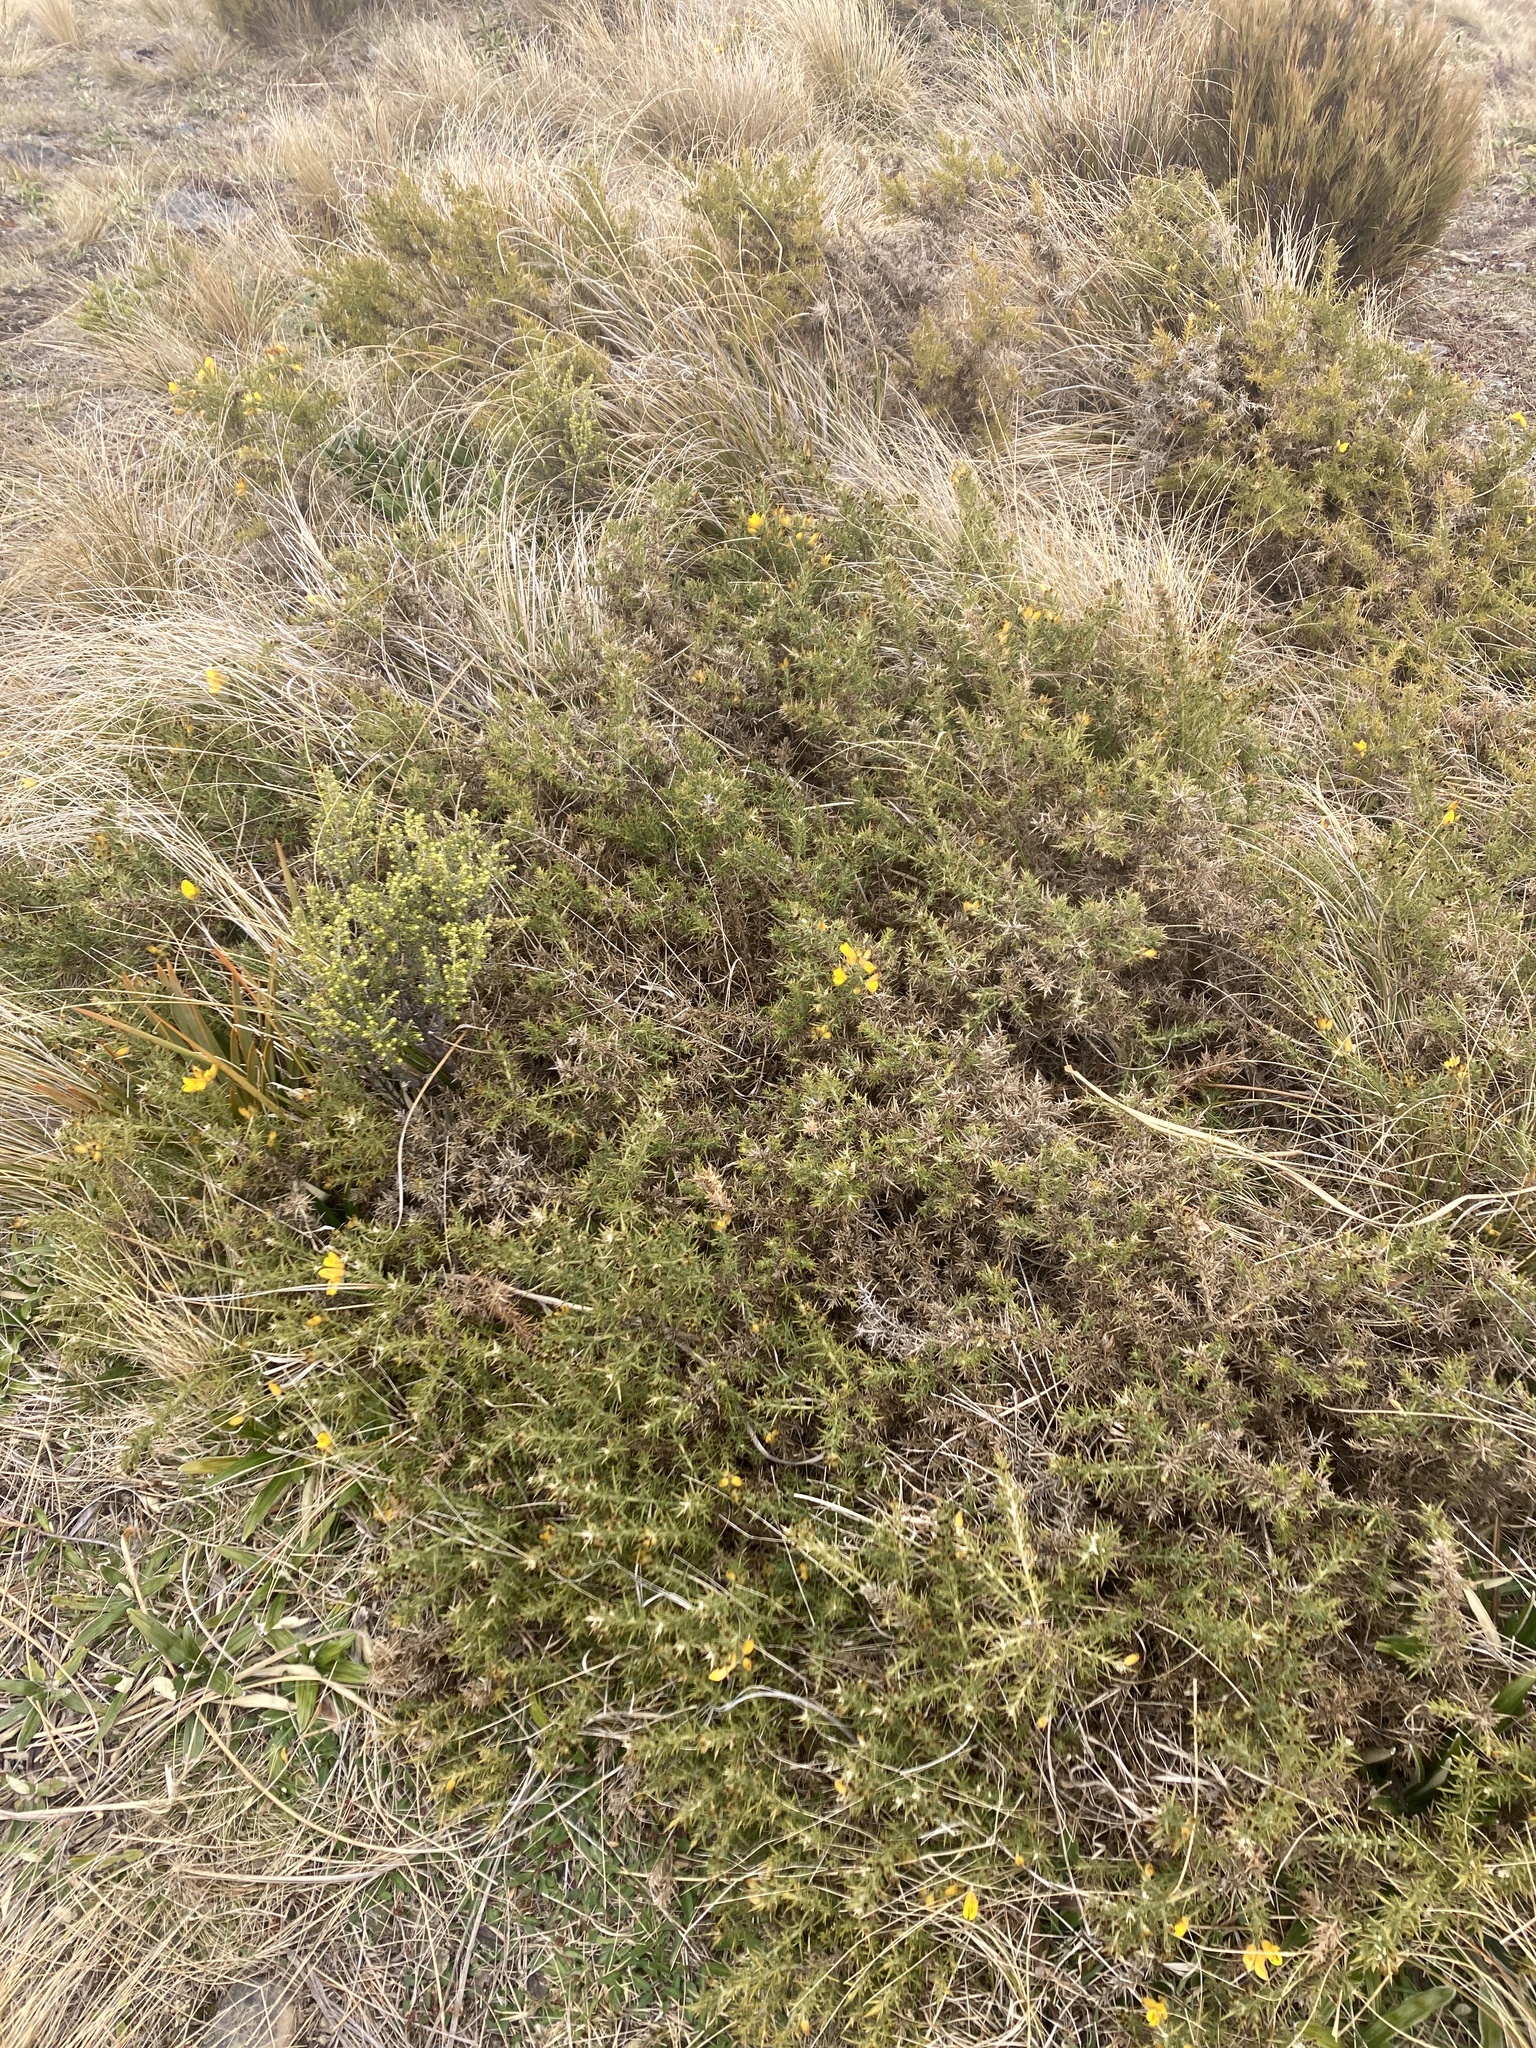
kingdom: Plantae
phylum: Tracheophyta
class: Magnoliopsida
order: Fabales
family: Fabaceae
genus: Ulex
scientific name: Ulex europaeus
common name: Common gorse
